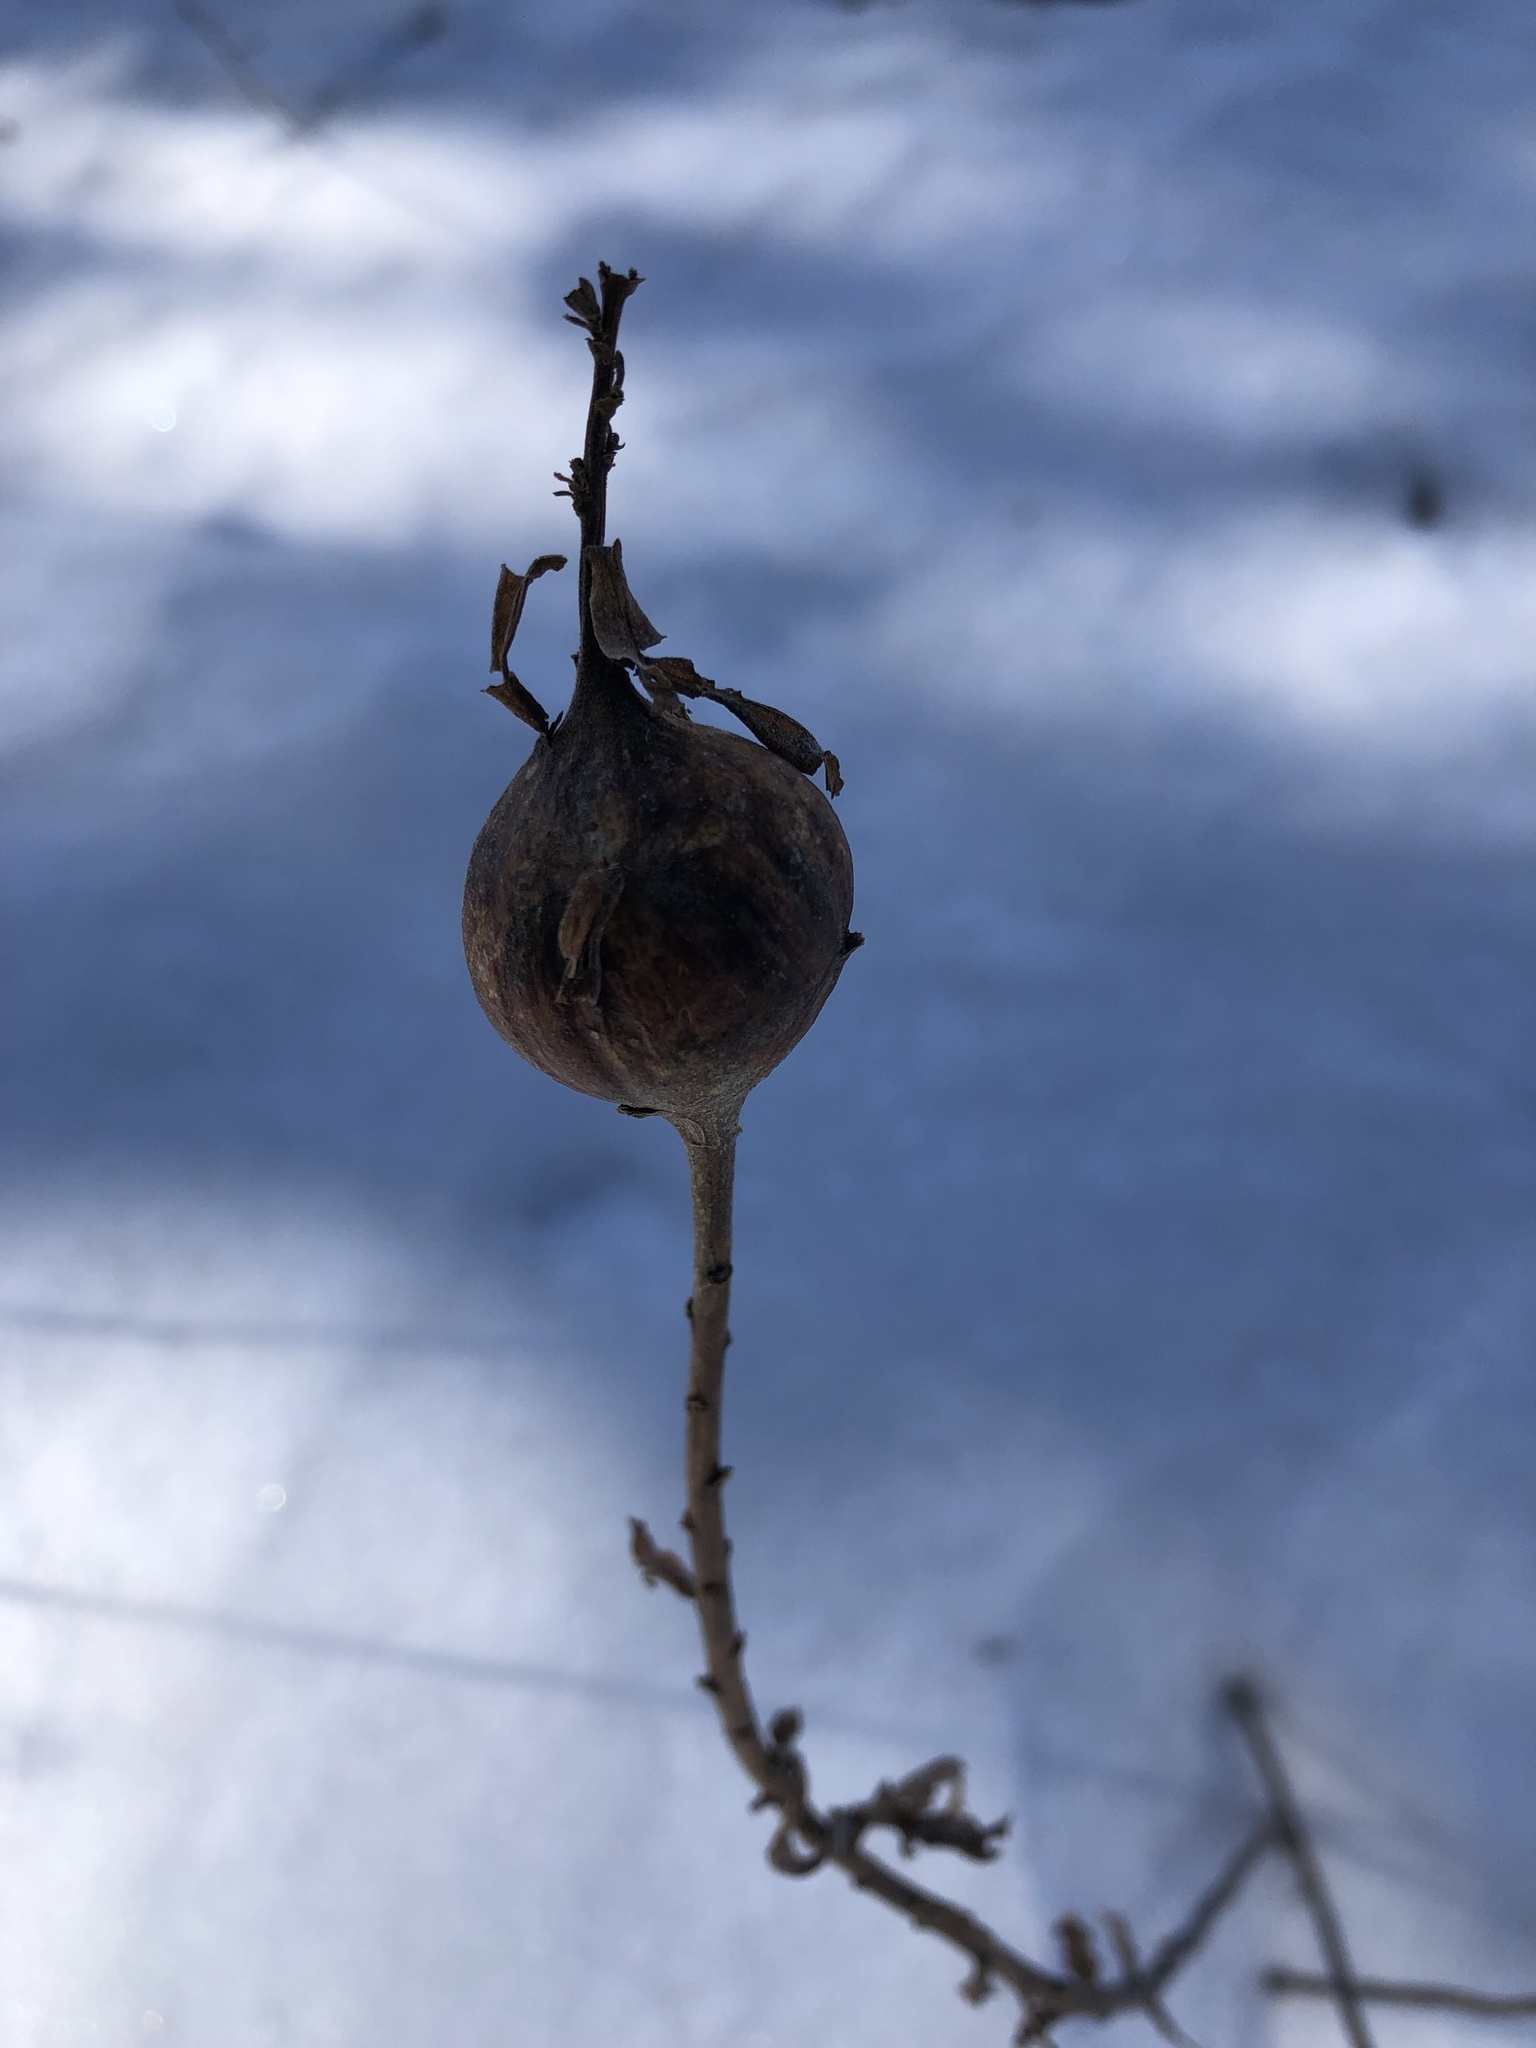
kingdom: Animalia
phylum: Arthropoda
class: Insecta
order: Diptera
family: Tephritidae
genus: Eurosta
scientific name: Eurosta solidaginis
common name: Goldenrod gall fly
